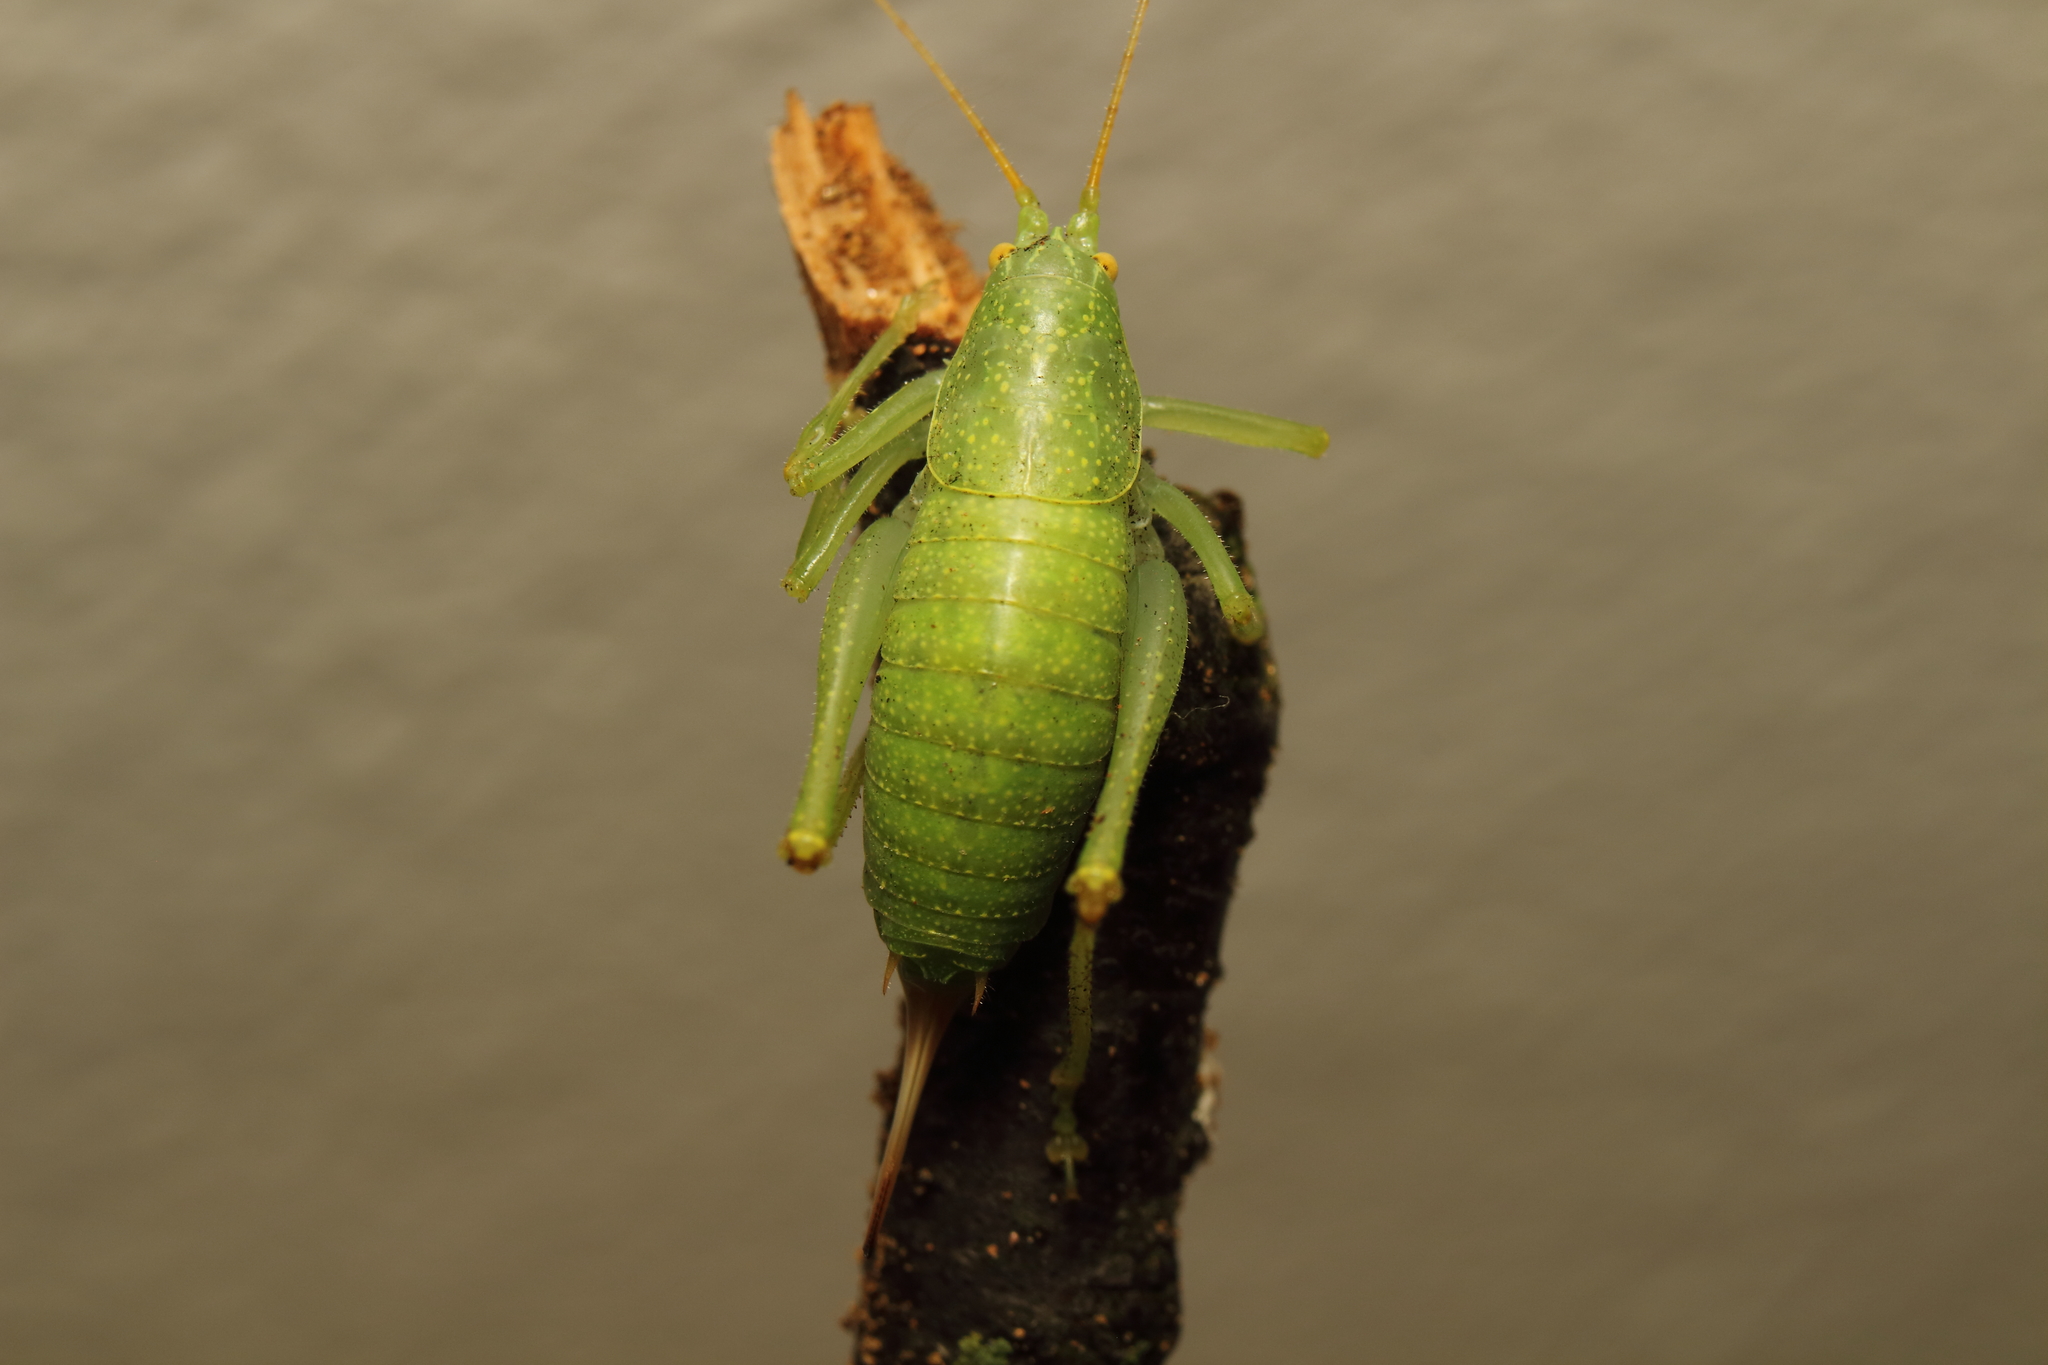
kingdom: Animalia
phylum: Arthropoda
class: Insecta
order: Orthoptera
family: Tettigoniidae
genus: Cyrtaspis
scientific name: Cyrtaspis scutata
